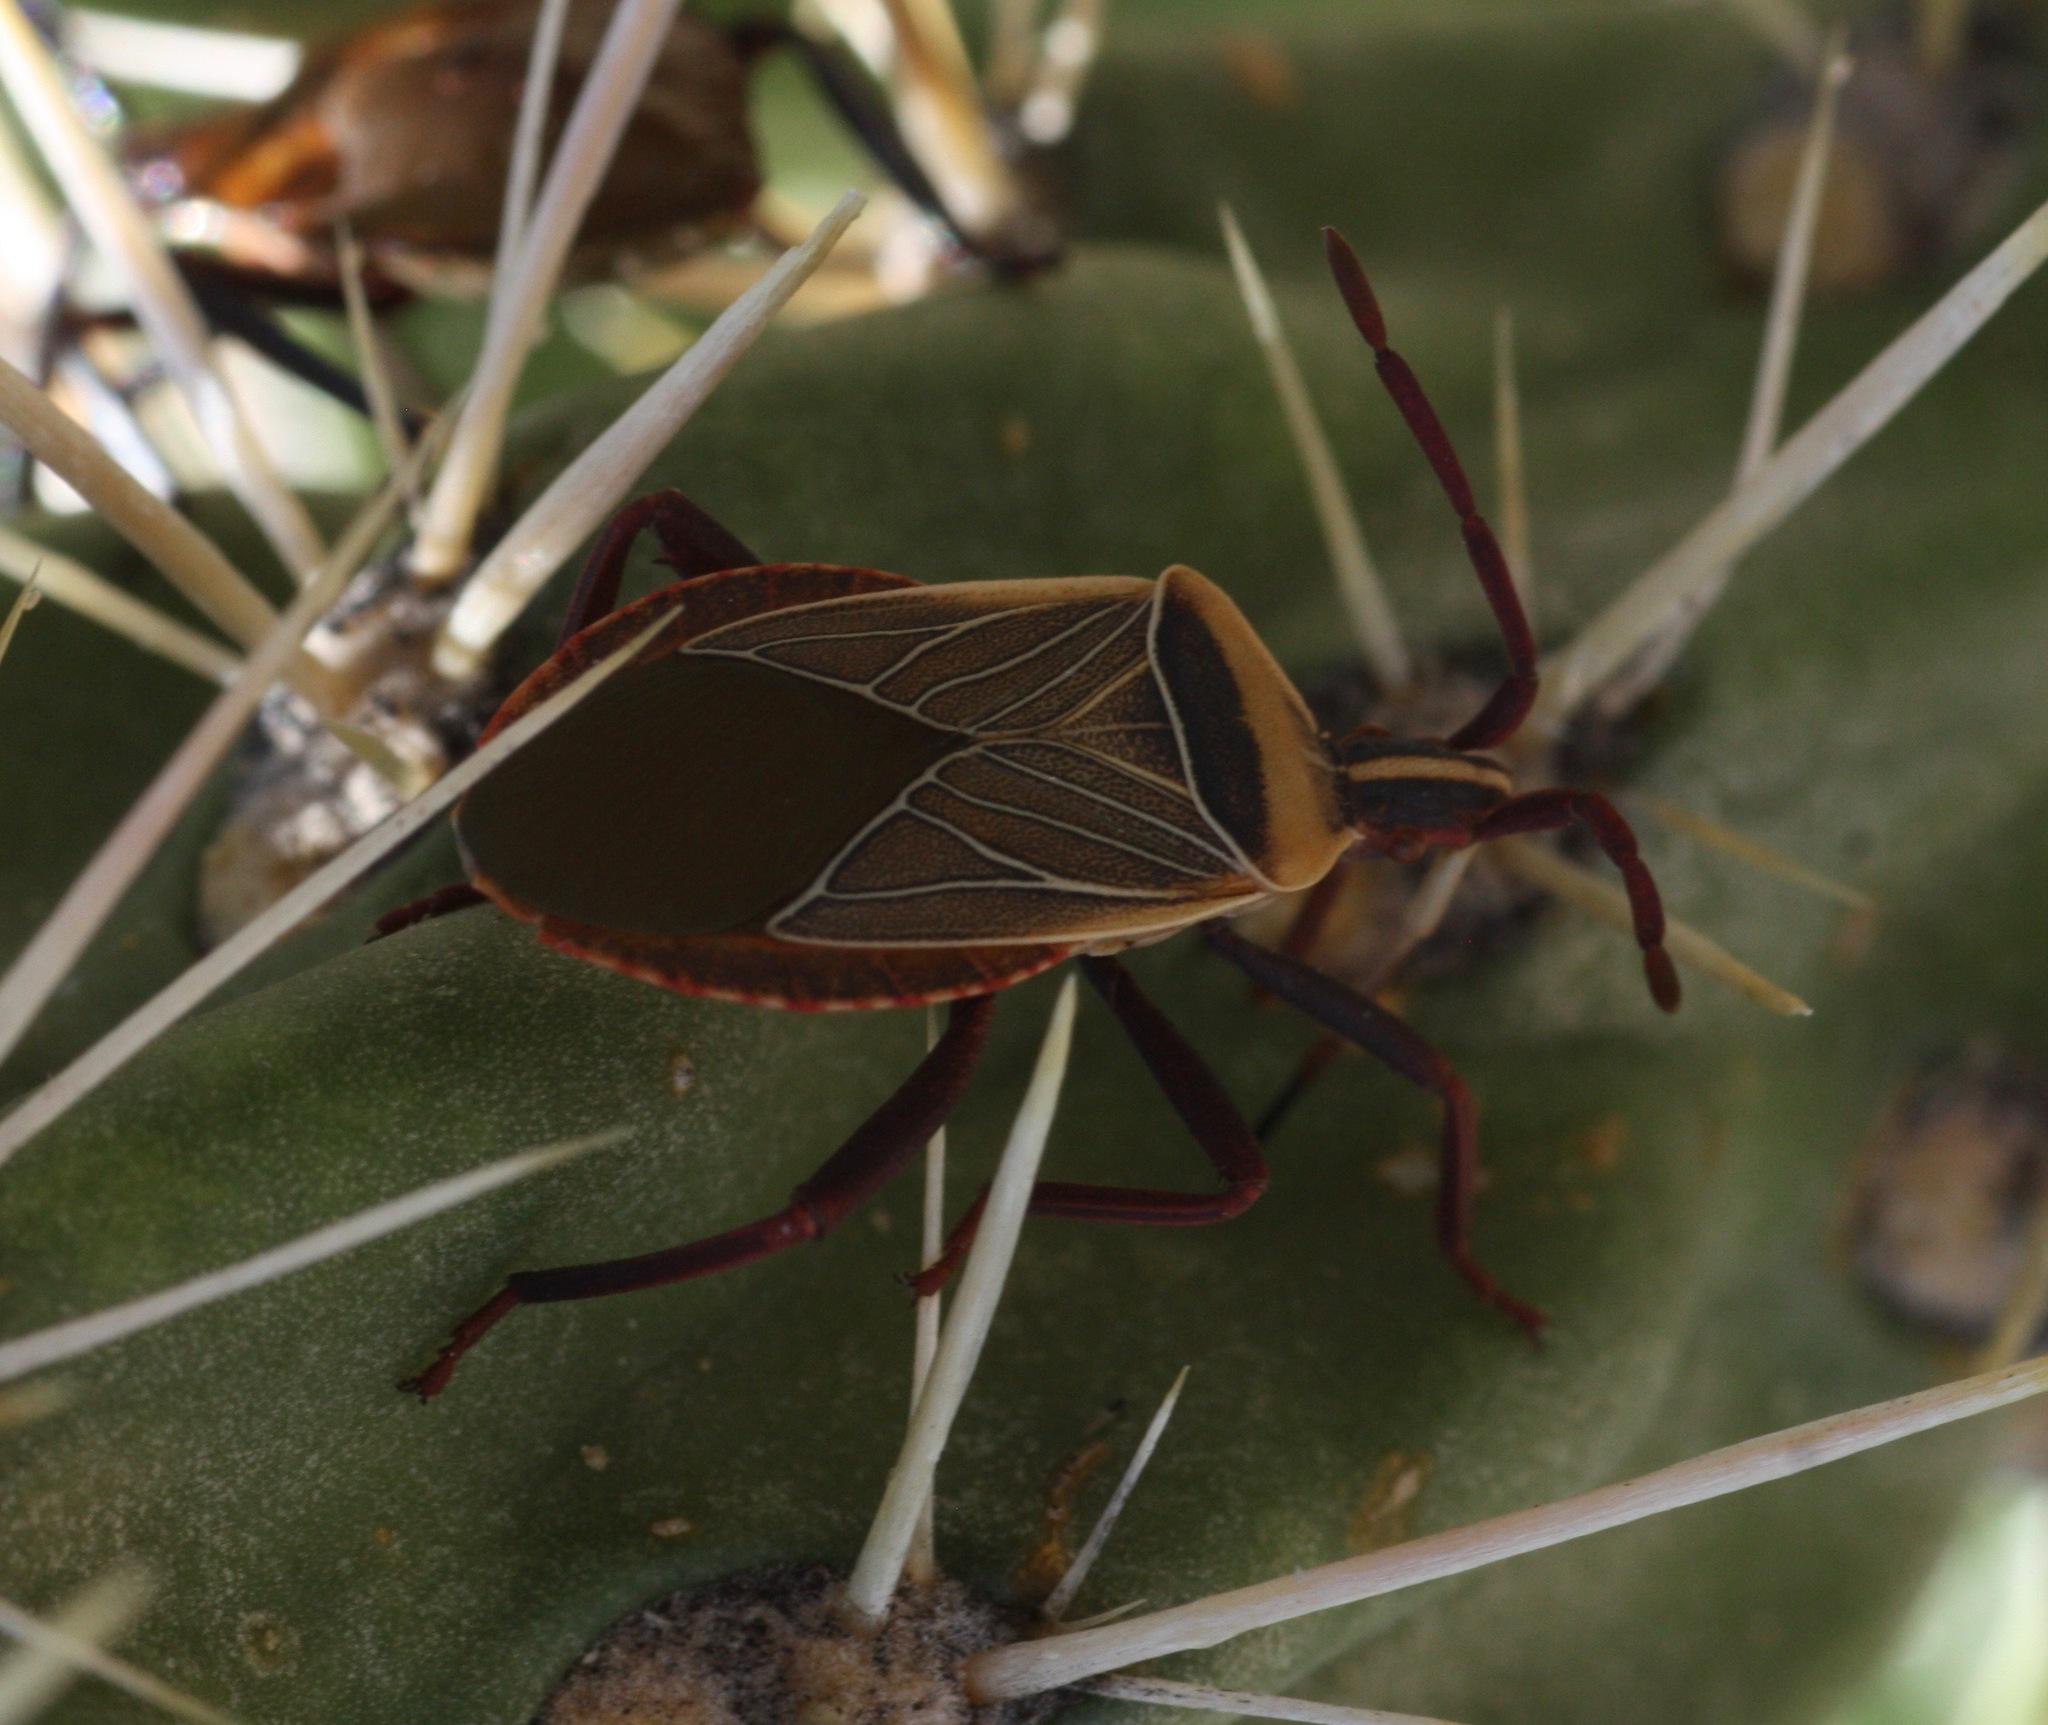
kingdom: Animalia
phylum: Arthropoda
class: Insecta
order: Hemiptera
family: Coreidae
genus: Chelinidea
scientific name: Chelinidea vittiger
